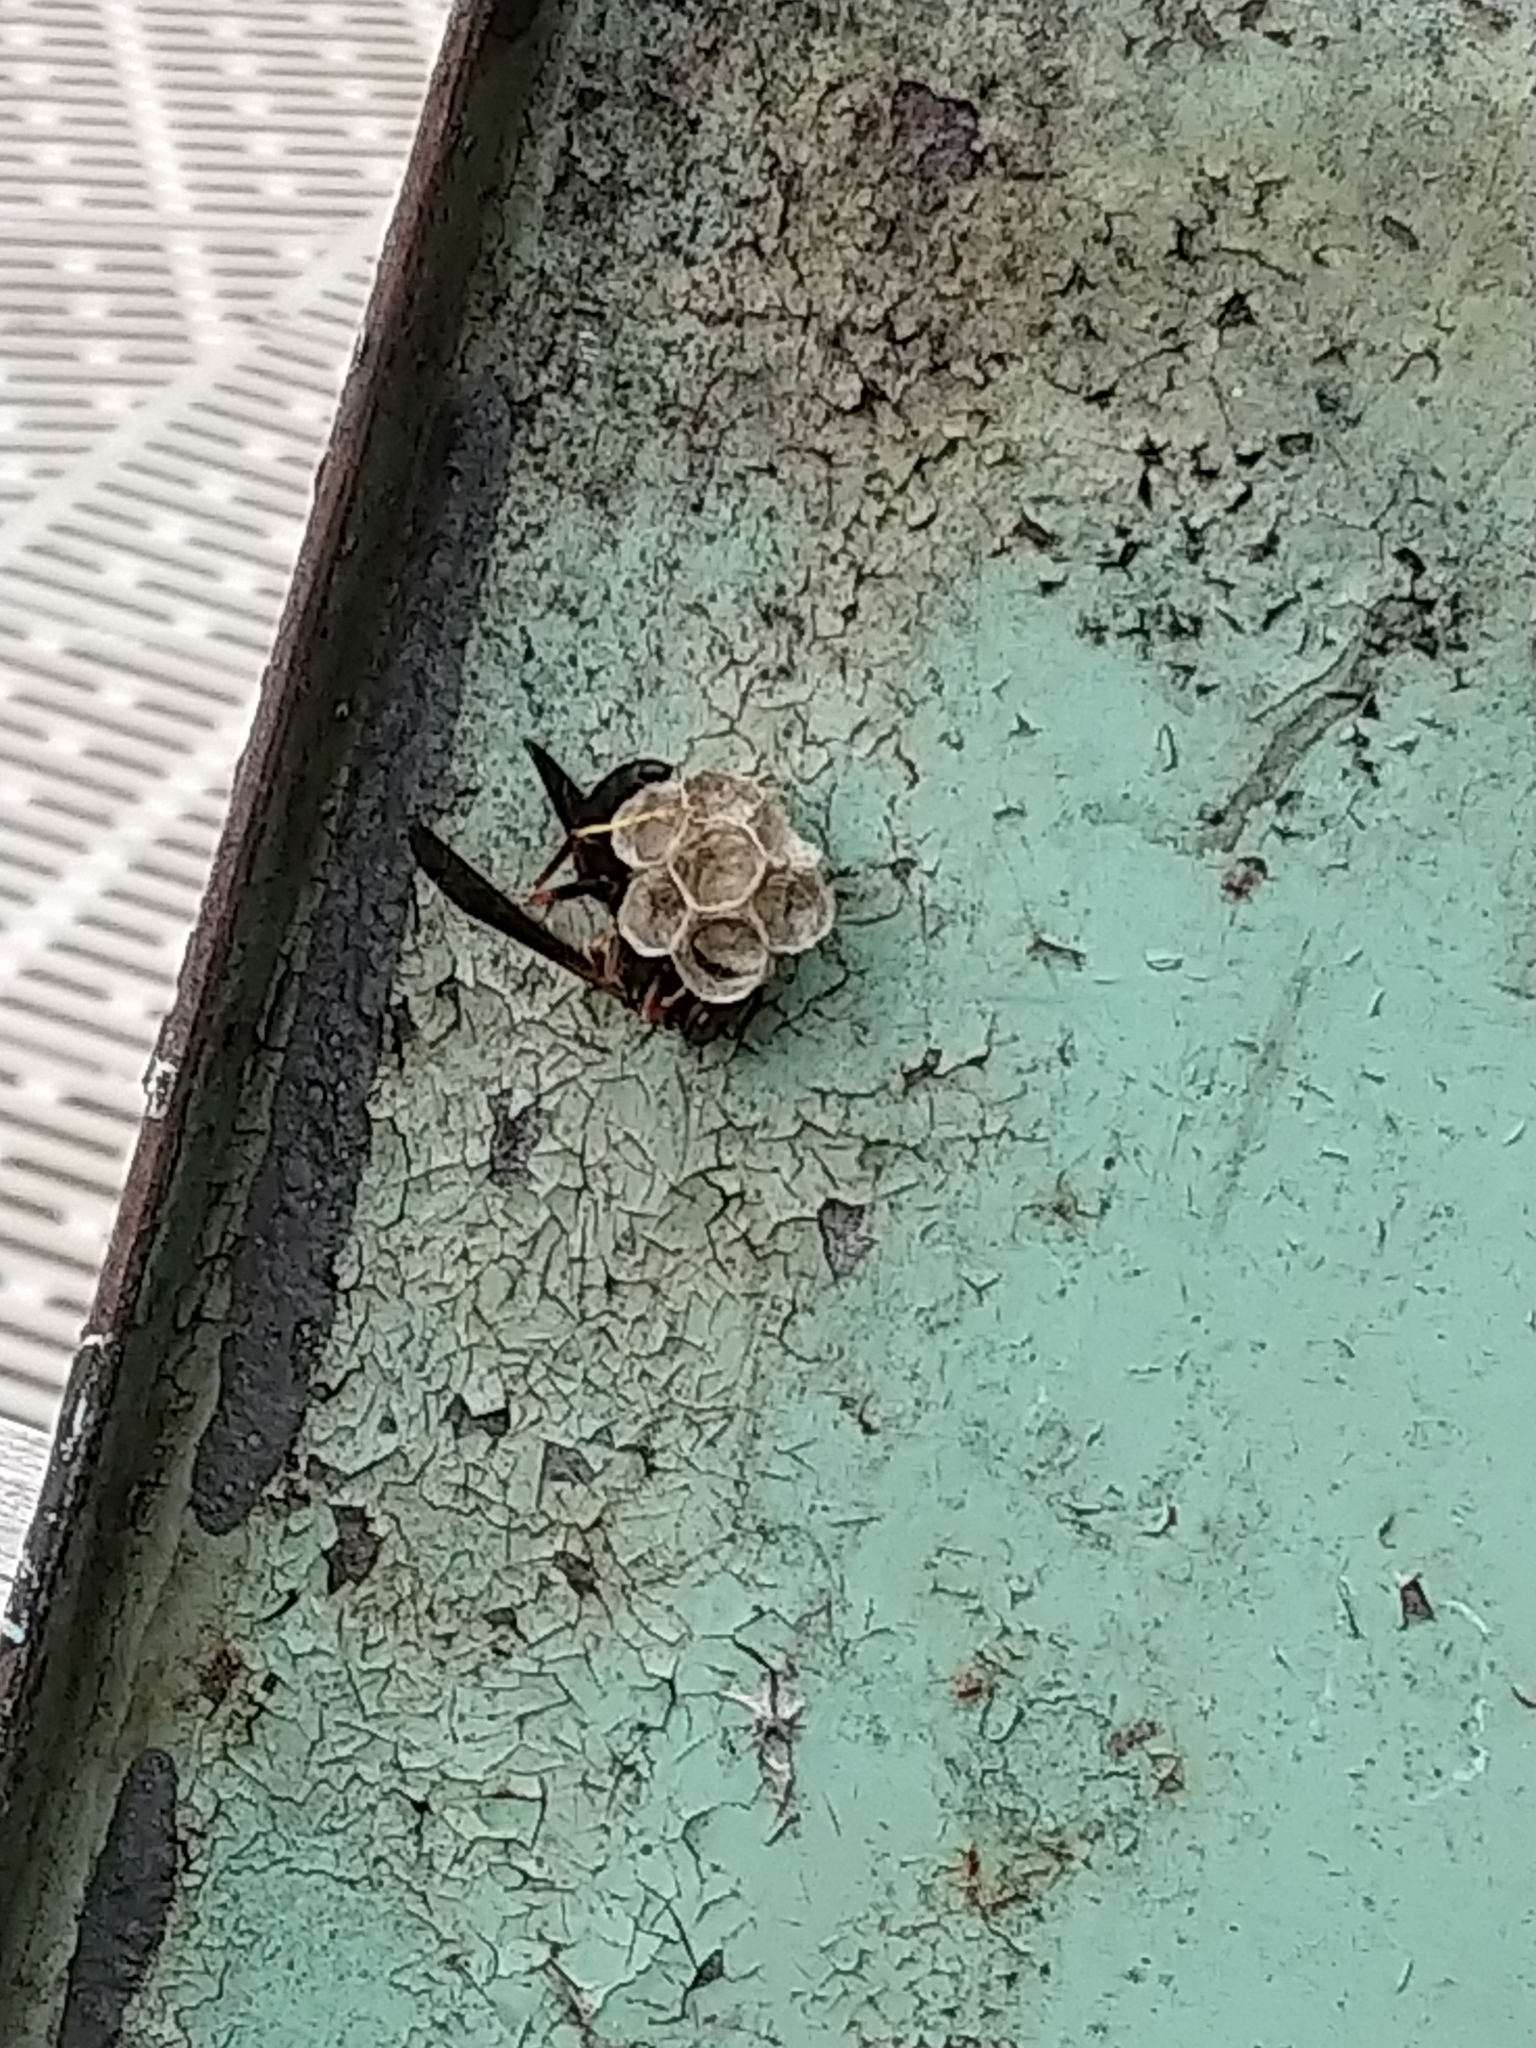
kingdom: Animalia
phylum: Arthropoda
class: Insecta
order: Hymenoptera
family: Vespidae
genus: Fuscopolistes
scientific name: Fuscopolistes
